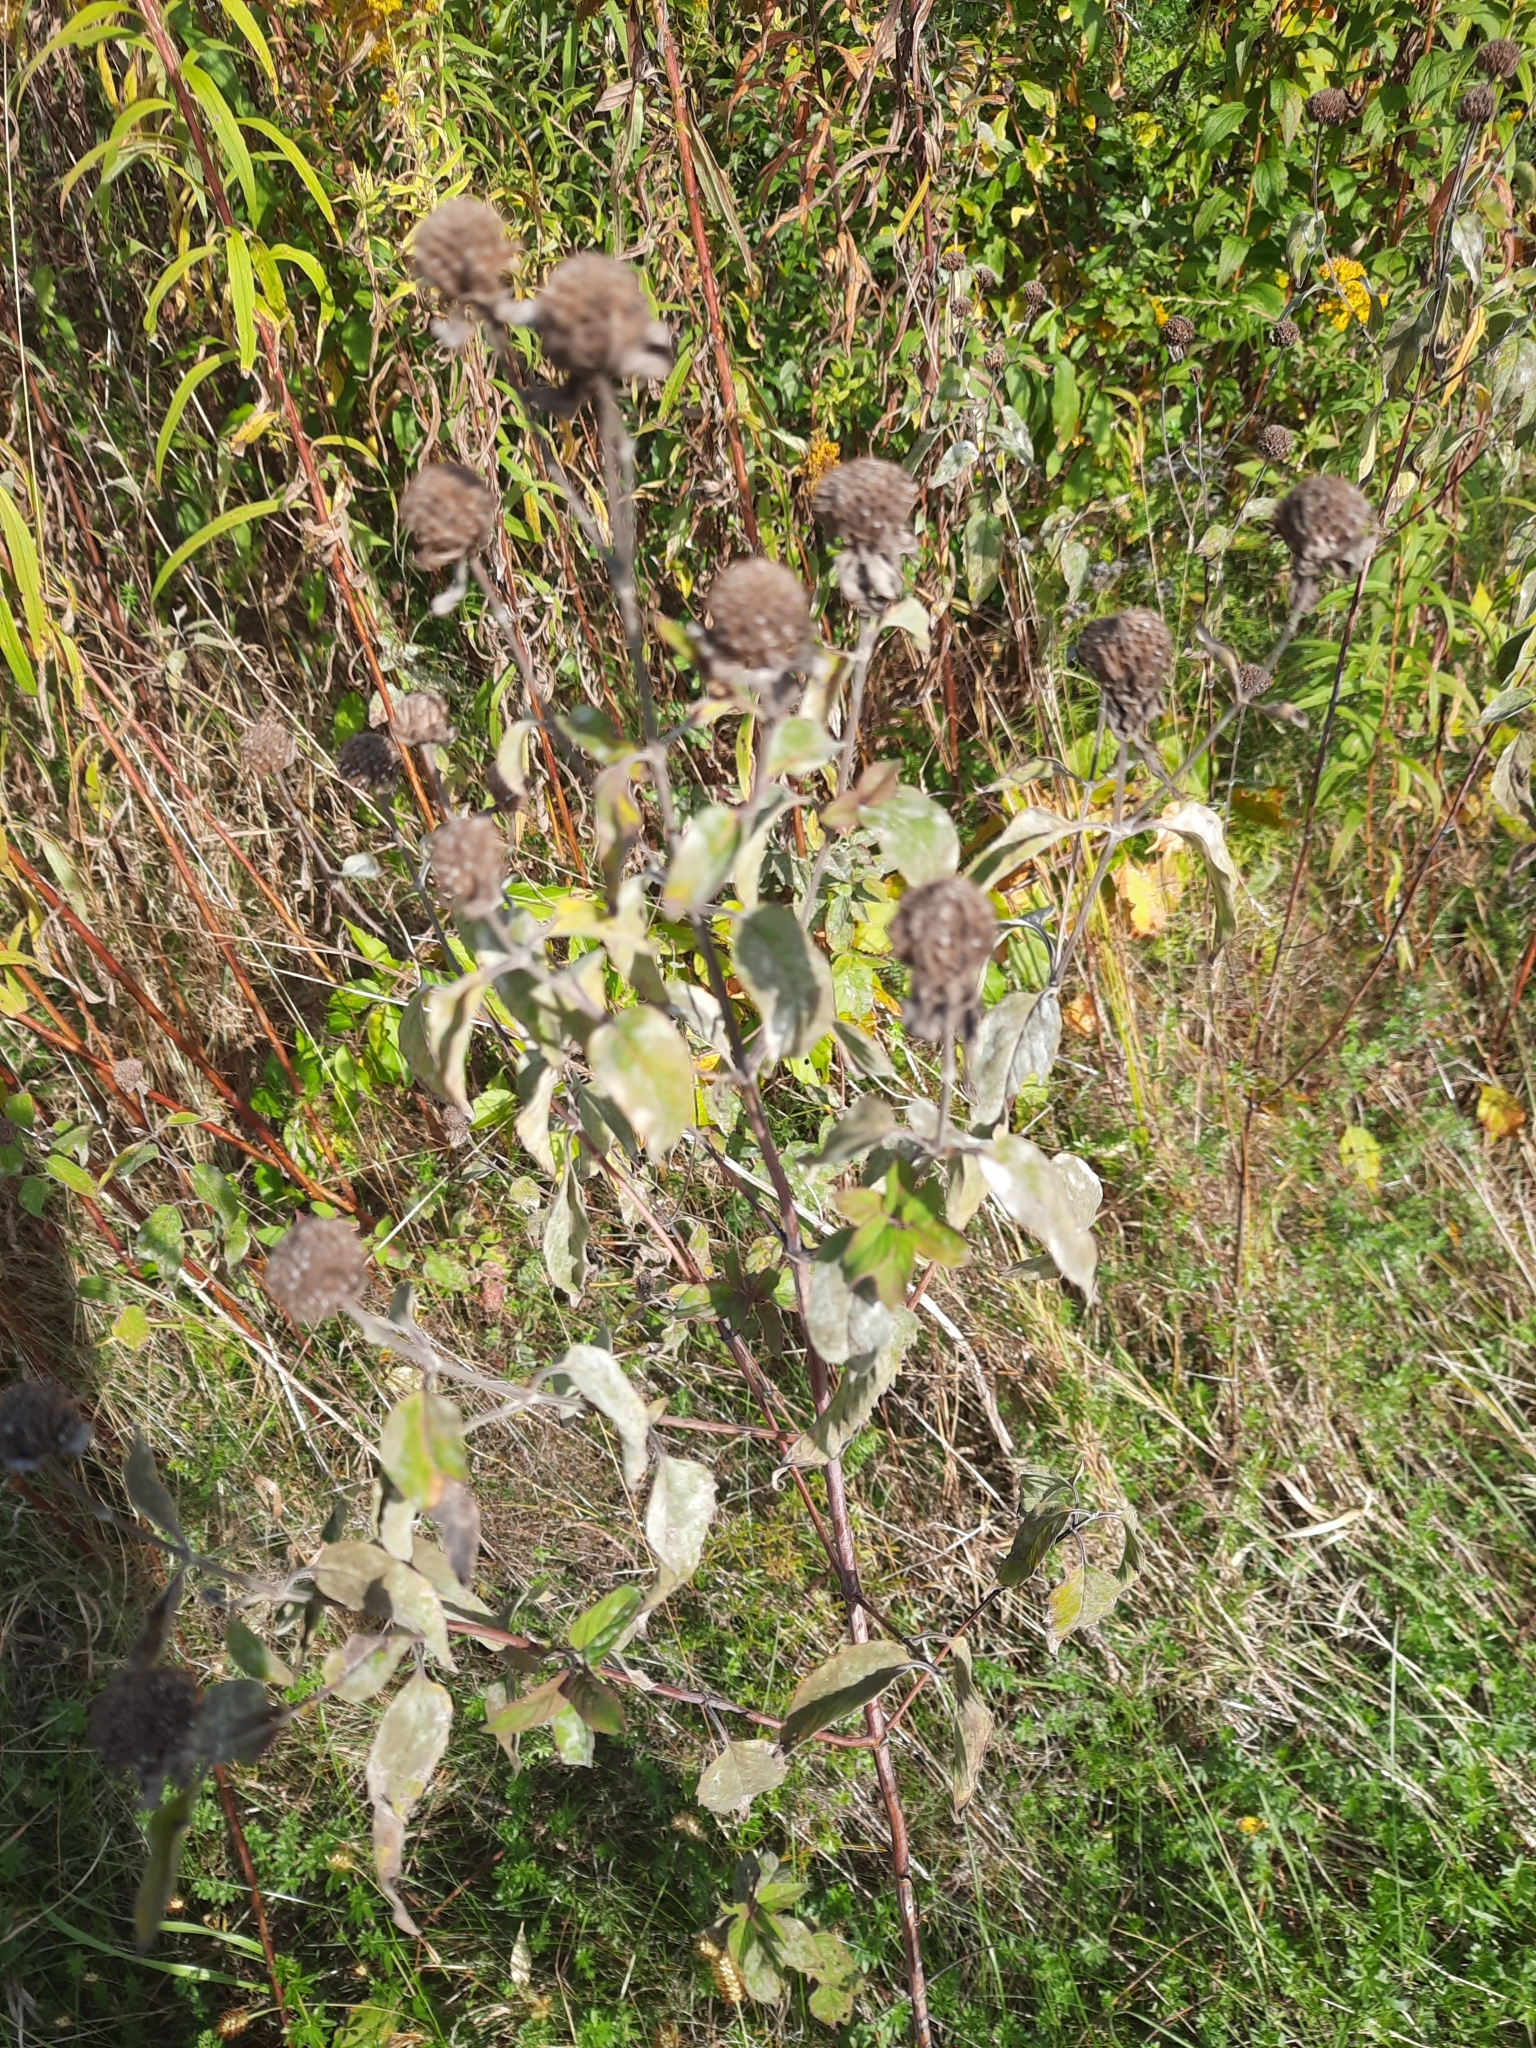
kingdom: Plantae
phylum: Tracheophyta
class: Magnoliopsida
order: Lamiales
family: Lamiaceae
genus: Monarda
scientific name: Monarda fistulosa
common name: Purple beebalm
